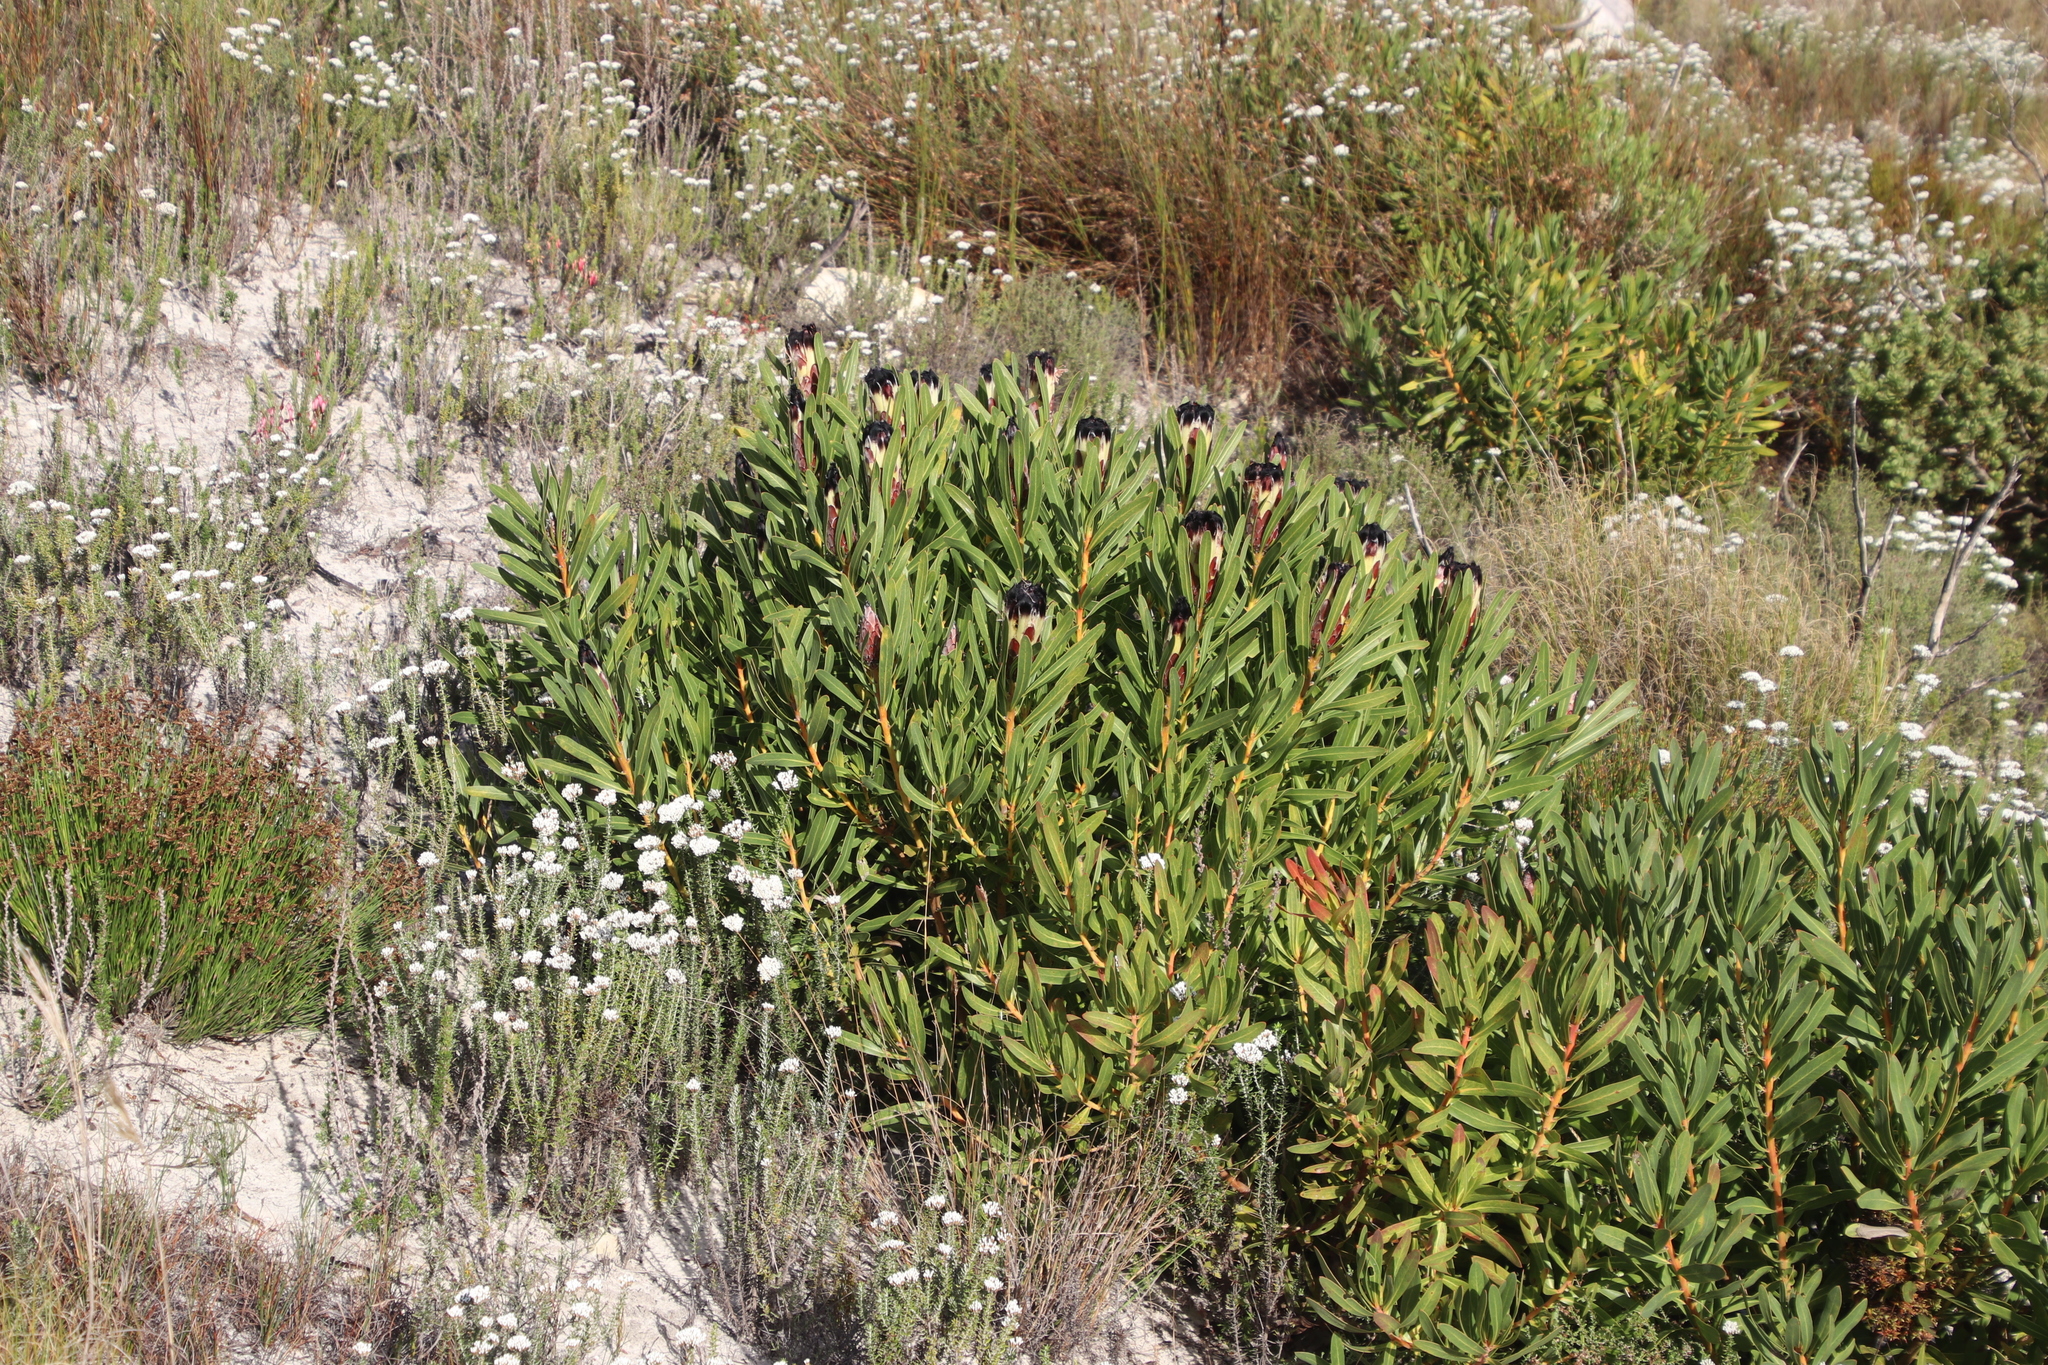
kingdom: Plantae
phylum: Tracheophyta
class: Magnoliopsida
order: Proteales
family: Proteaceae
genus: Protea
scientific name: Protea lepidocarpodendron
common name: Black-bearded protea
